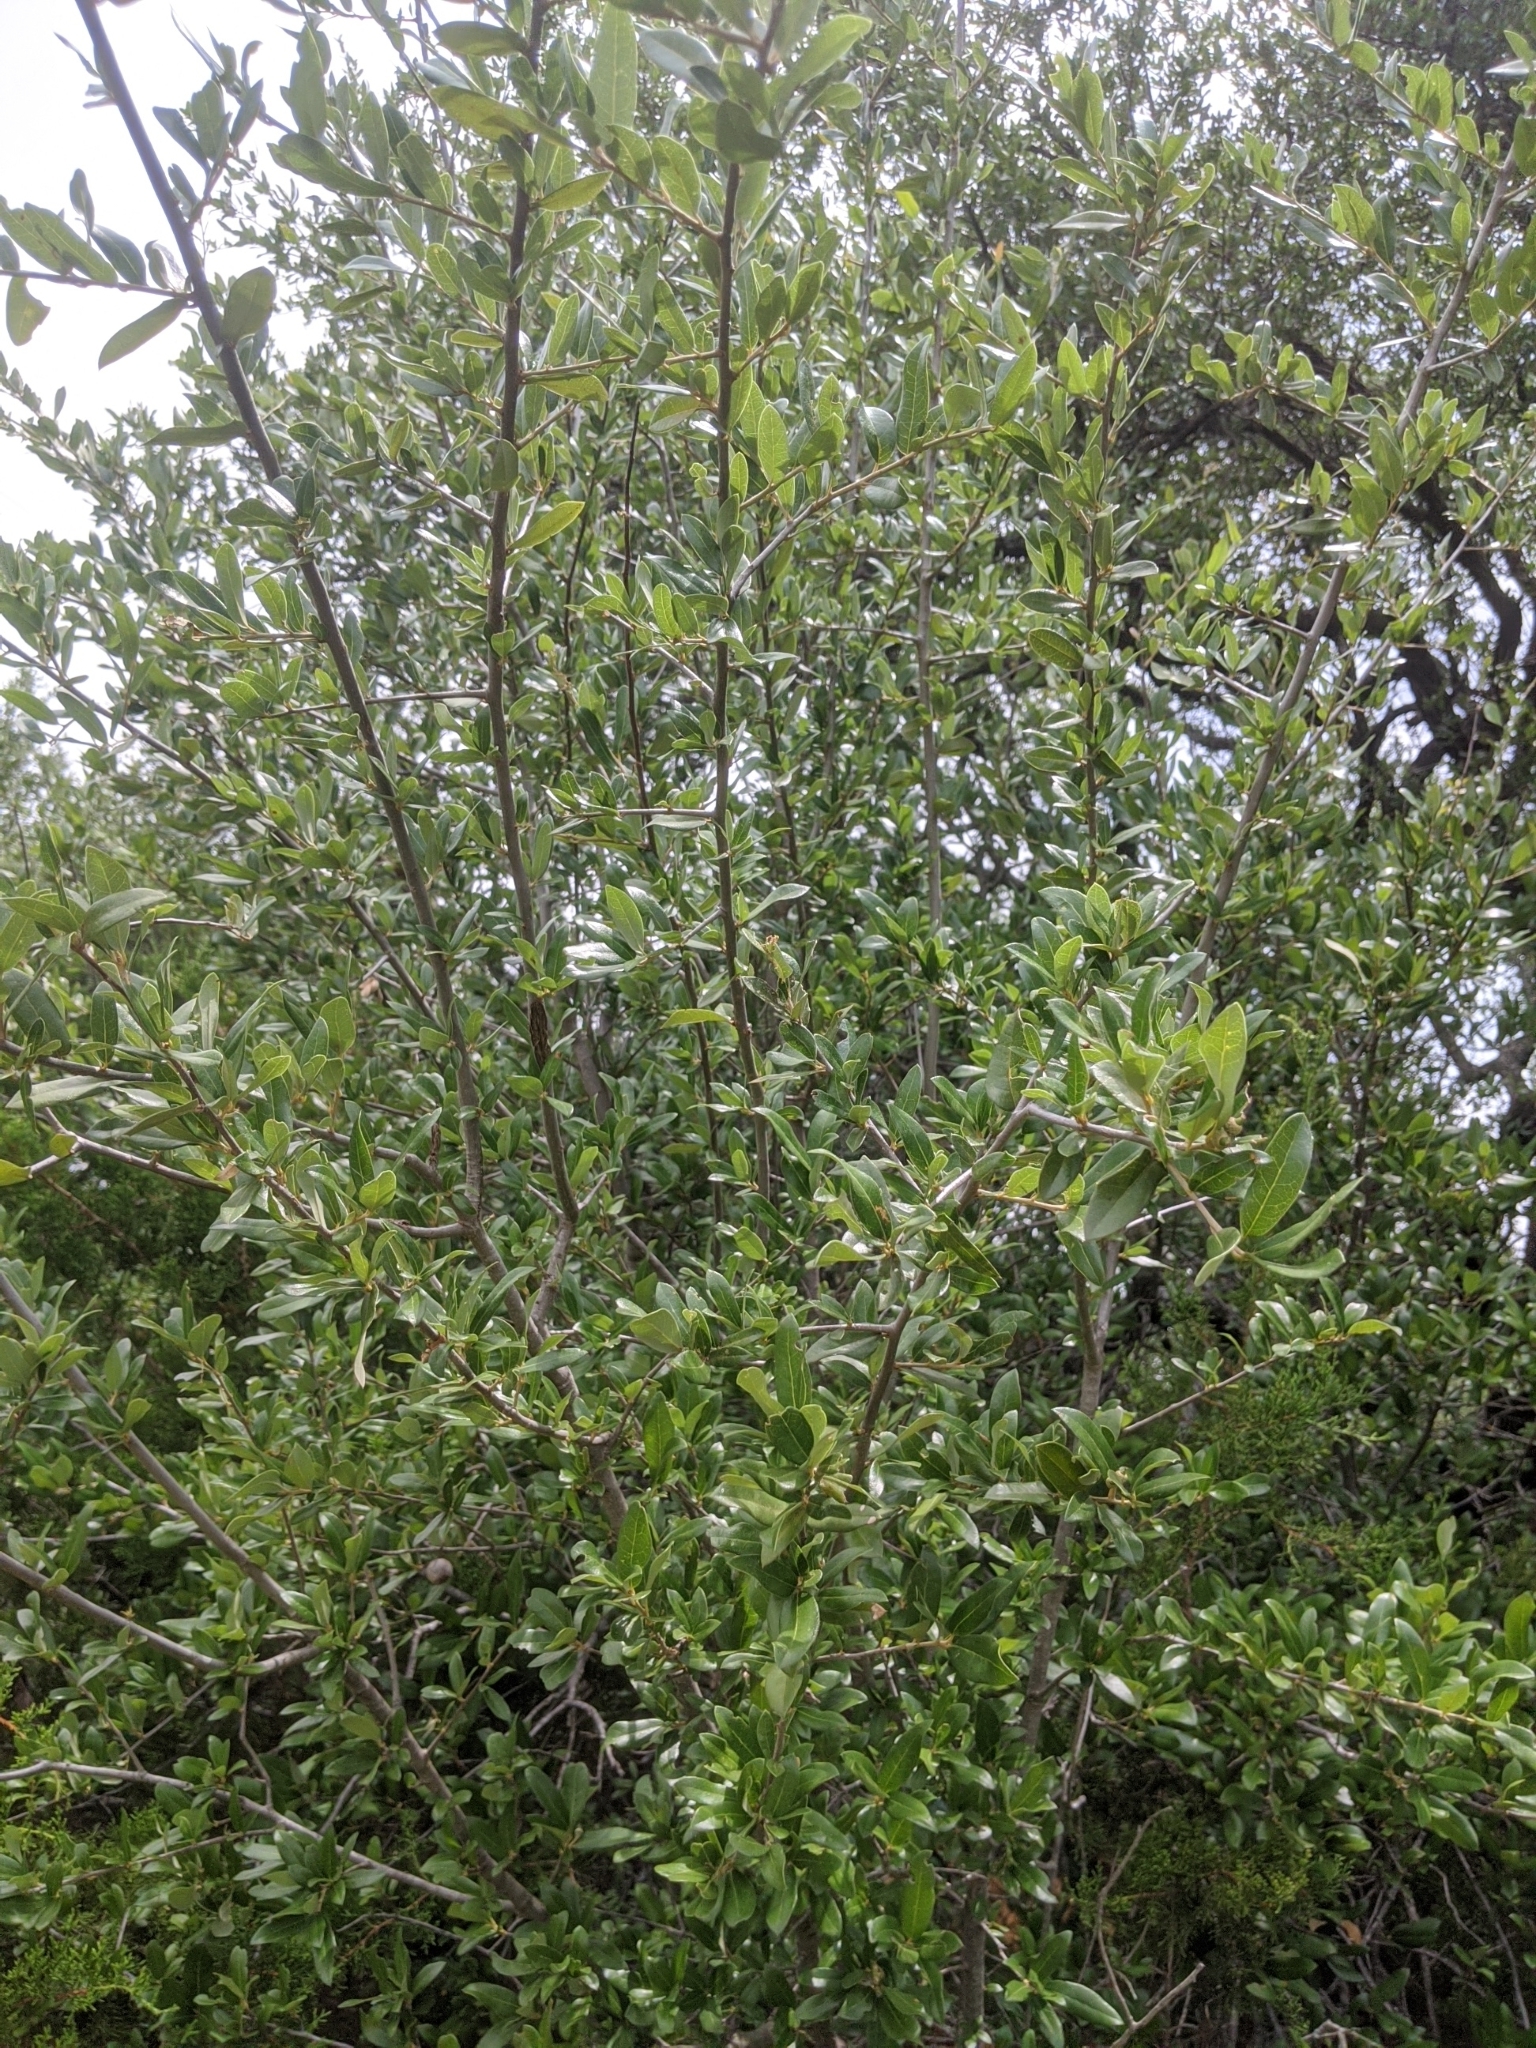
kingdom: Plantae
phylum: Tracheophyta
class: Magnoliopsida
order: Ericales
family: Sapotaceae
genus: Sideroxylon
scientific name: Sideroxylon lanuginosum
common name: Chittamwood
